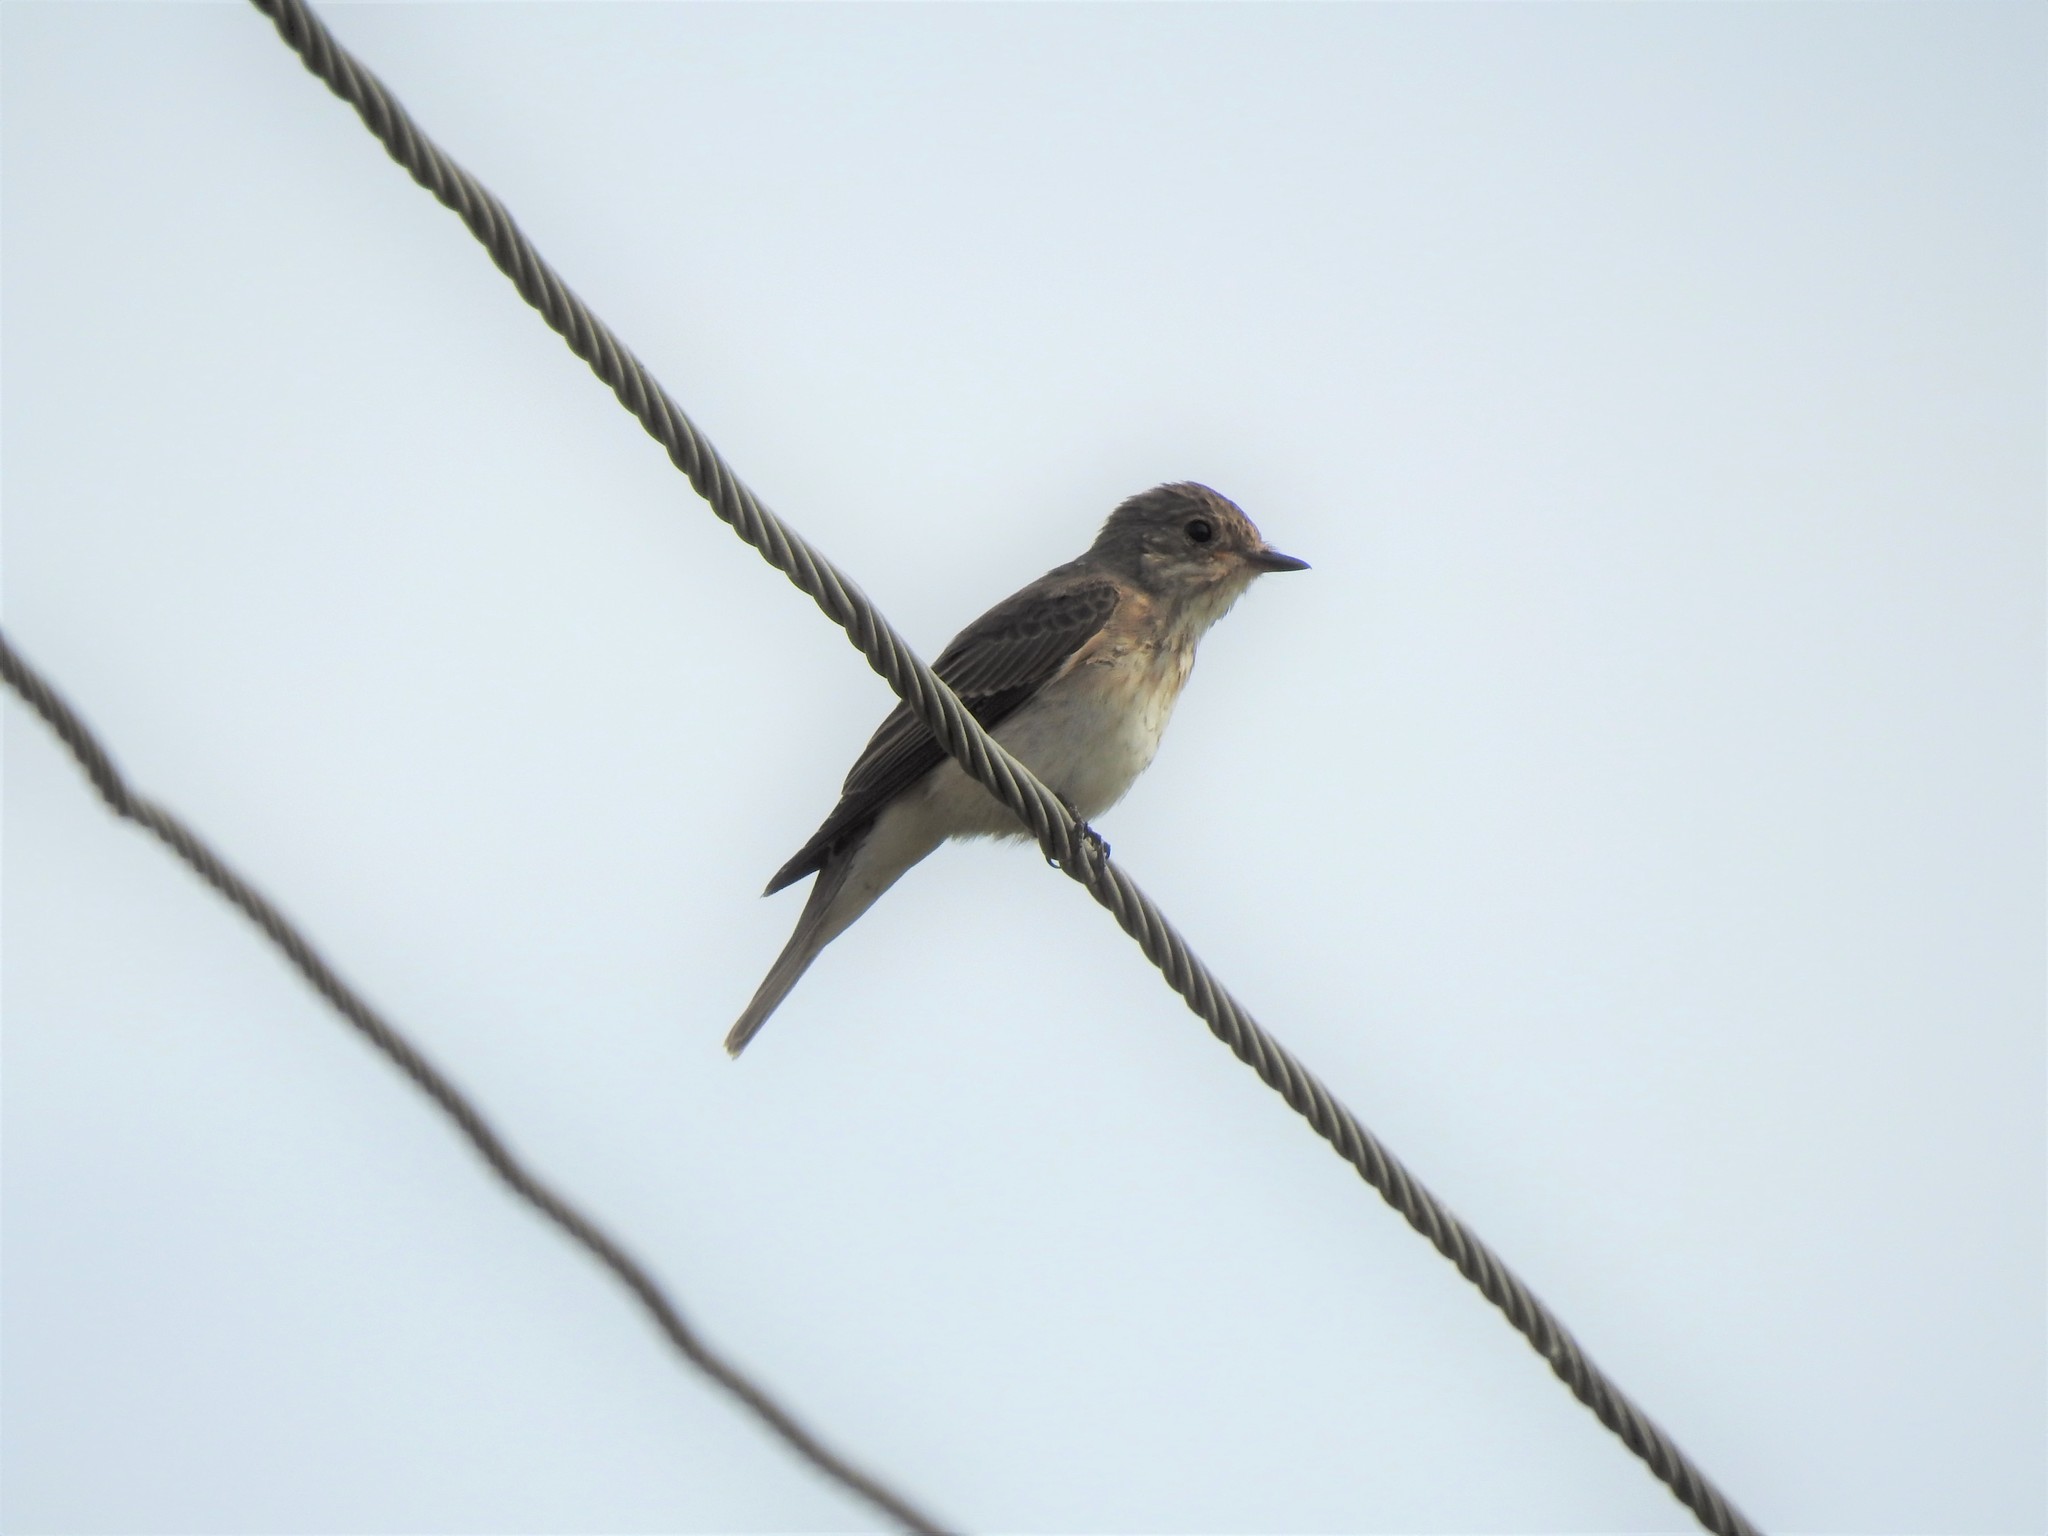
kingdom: Animalia
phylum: Chordata
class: Aves
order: Passeriformes
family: Muscicapidae
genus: Muscicapa
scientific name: Muscicapa striata
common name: Spotted flycatcher
